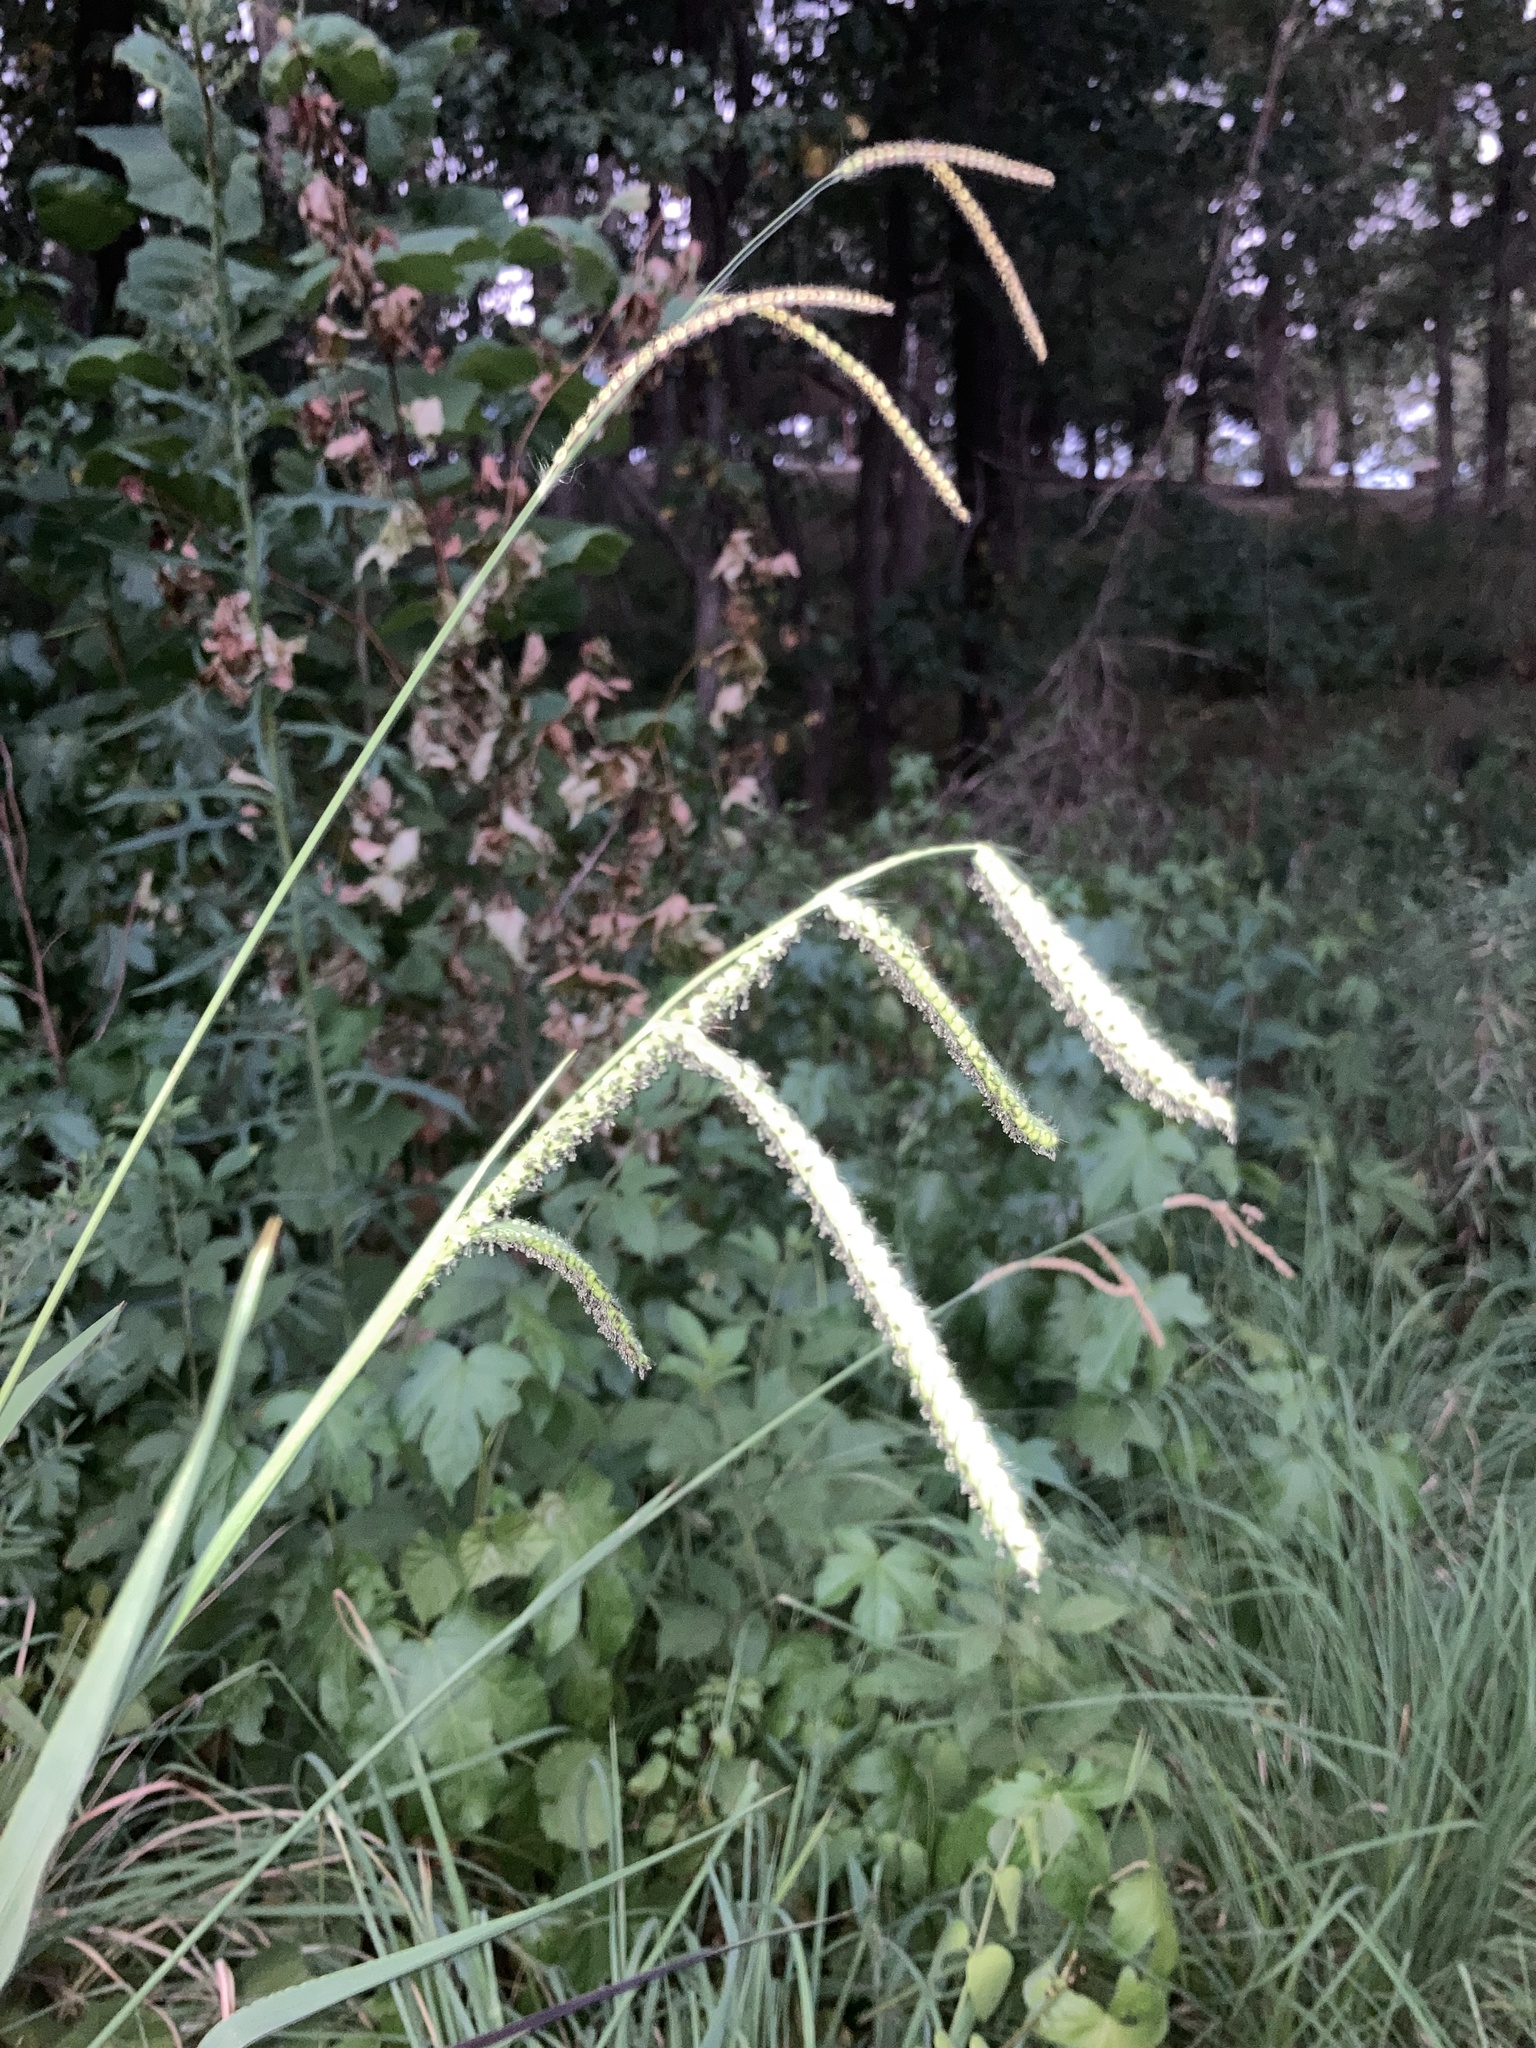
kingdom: Plantae
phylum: Tracheophyta
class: Liliopsida
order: Poales
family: Poaceae
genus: Paspalum
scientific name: Paspalum dilatatum
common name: Dallisgrass
